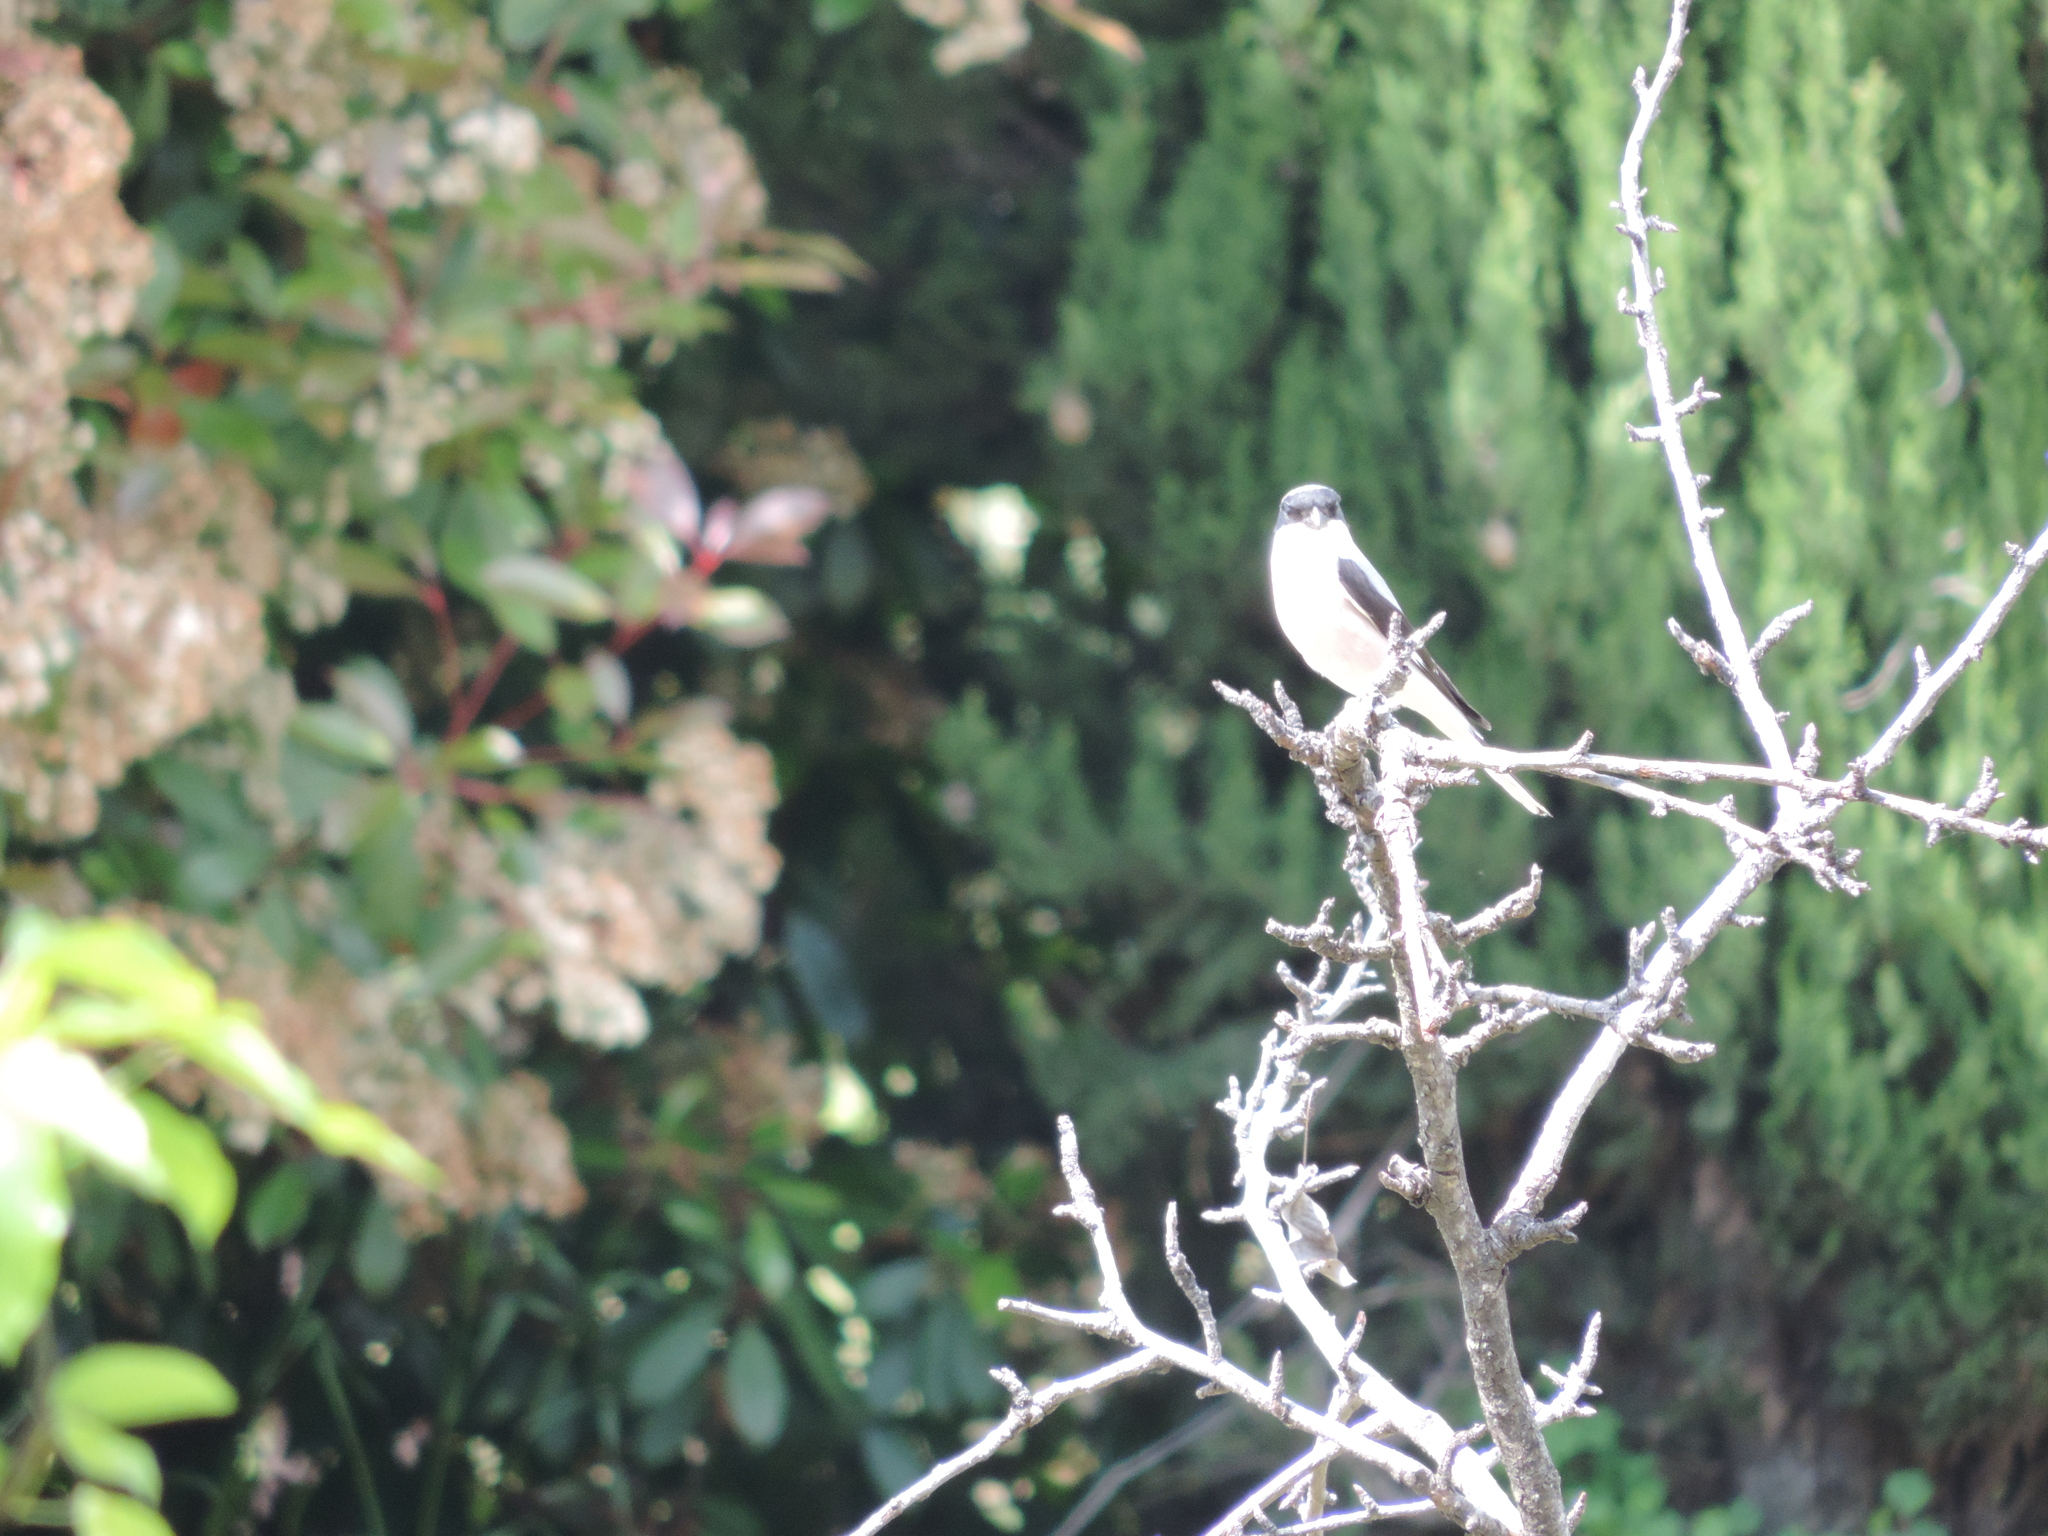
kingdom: Animalia
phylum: Chordata
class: Aves
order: Passeriformes
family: Laniidae
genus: Lanius
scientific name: Lanius minor
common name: Lesser grey shrike
